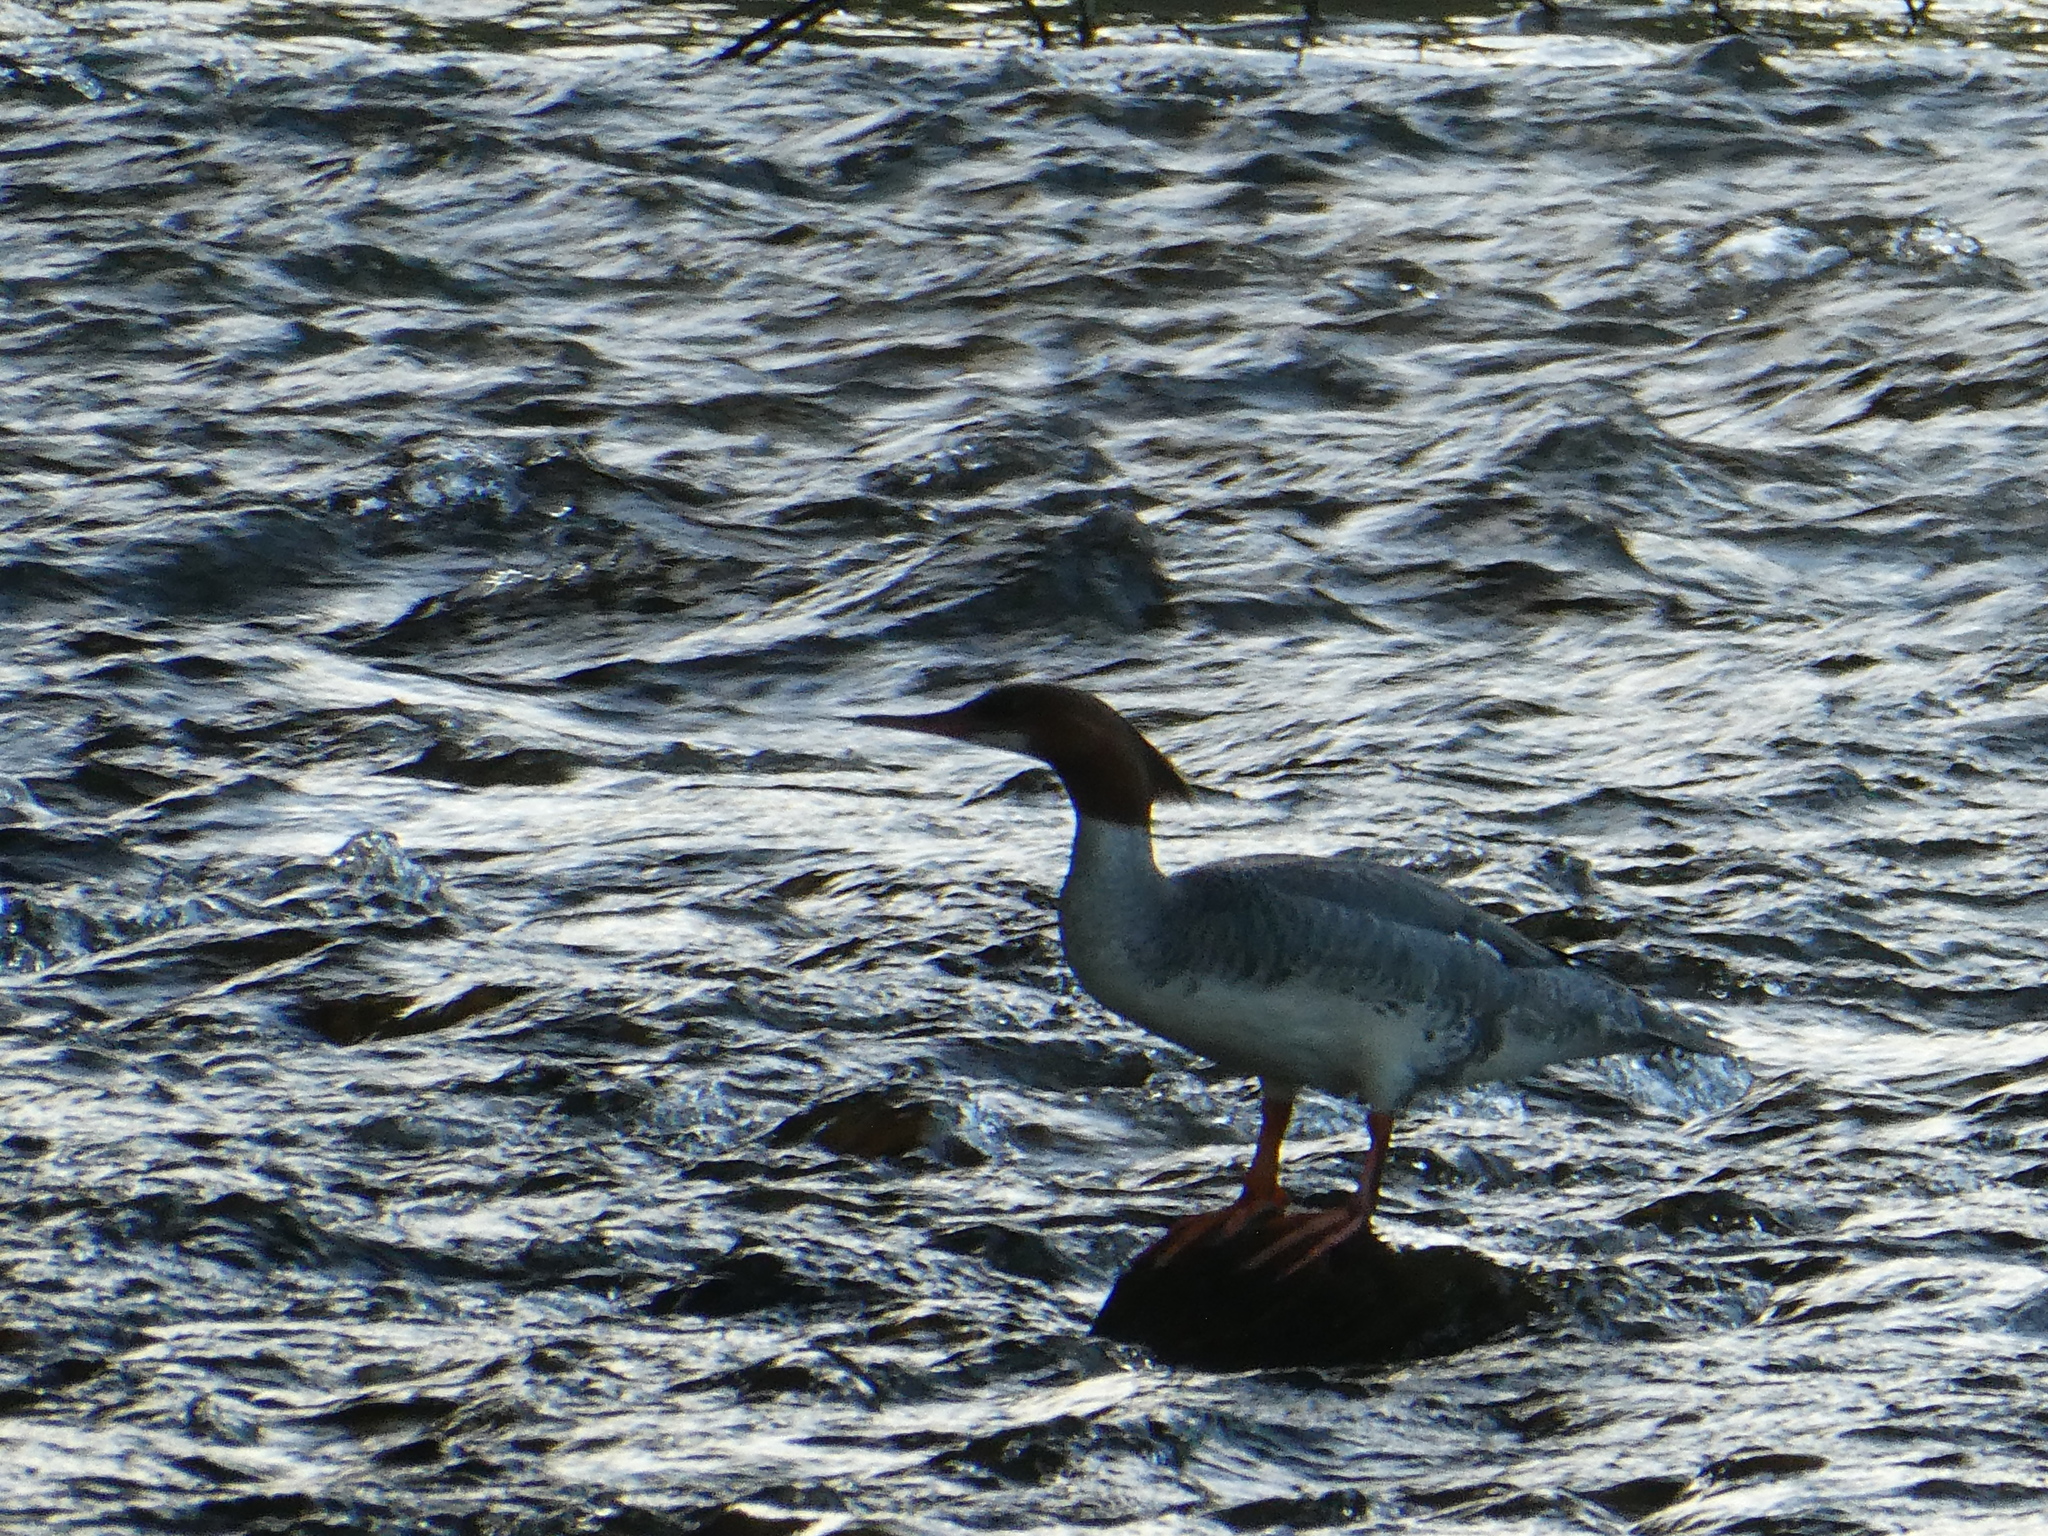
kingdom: Animalia
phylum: Chordata
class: Aves
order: Anseriformes
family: Anatidae
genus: Mergus
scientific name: Mergus merganser
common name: Common merganser
